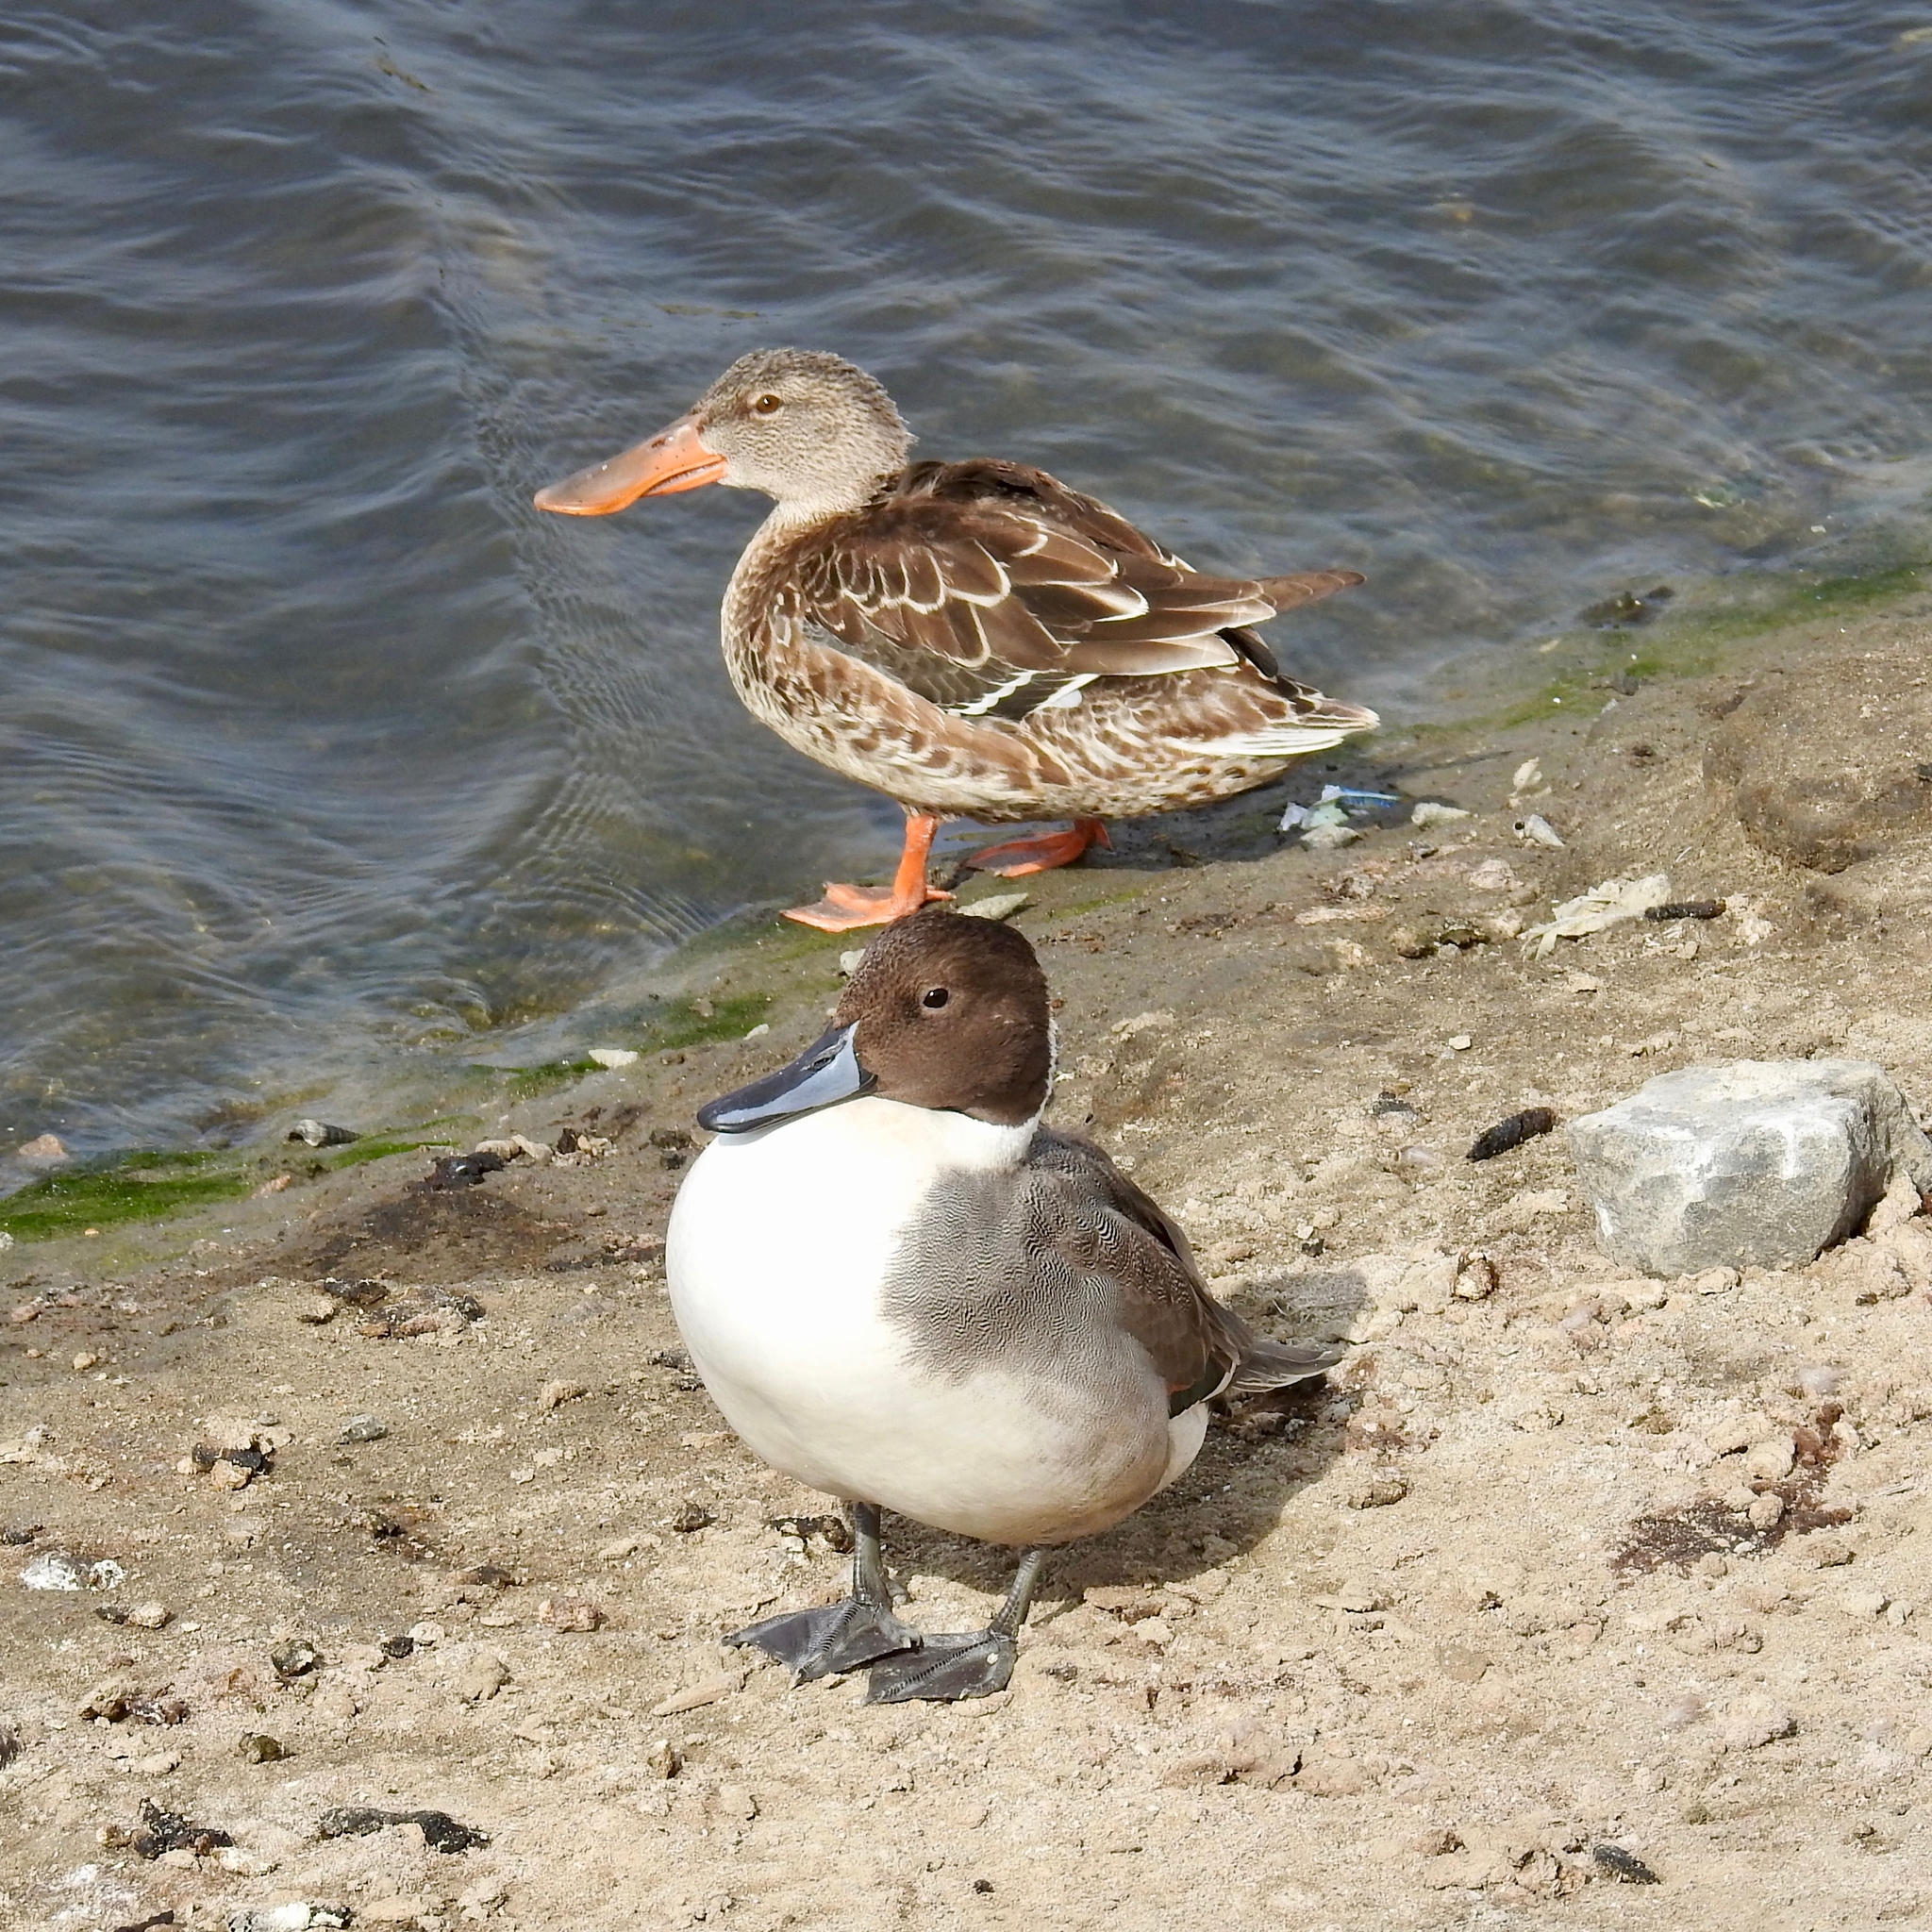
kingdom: Animalia
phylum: Chordata
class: Aves
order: Anseriformes
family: Anatidae
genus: Spatula
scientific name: Spatula clypeata
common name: Northern shoveler
